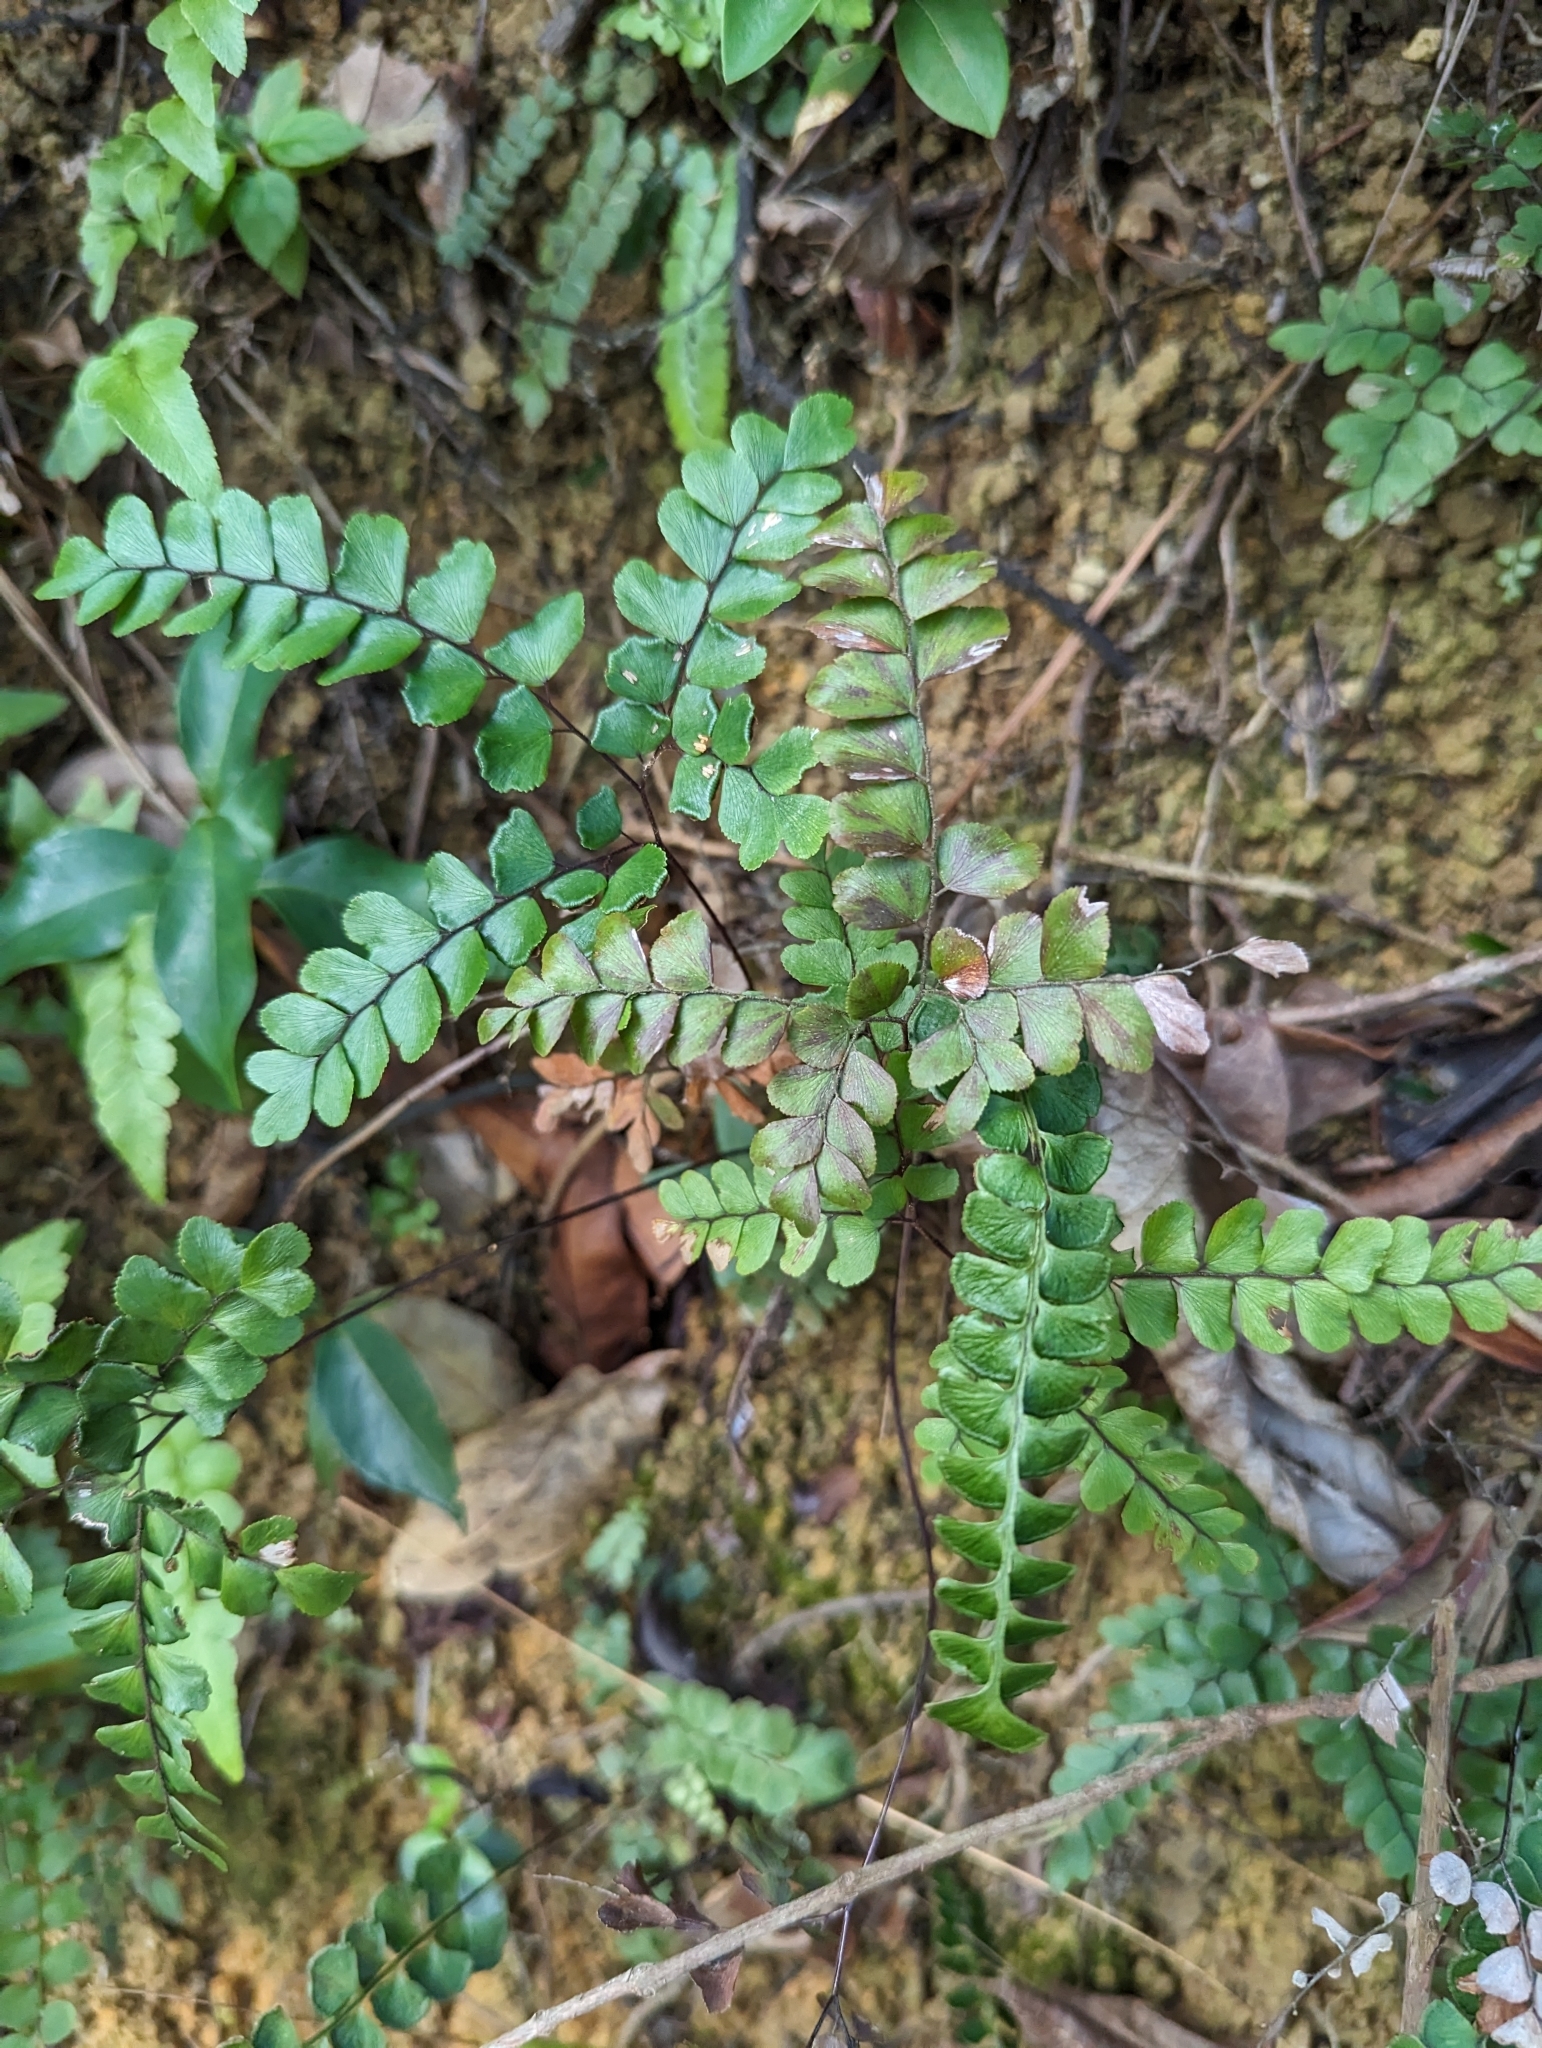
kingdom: Plantae
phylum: Tracheophyta
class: Polypodiopsida
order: Polypodiales
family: Pteridaceae
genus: Adiantum
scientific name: Adiantum flabellulatum
